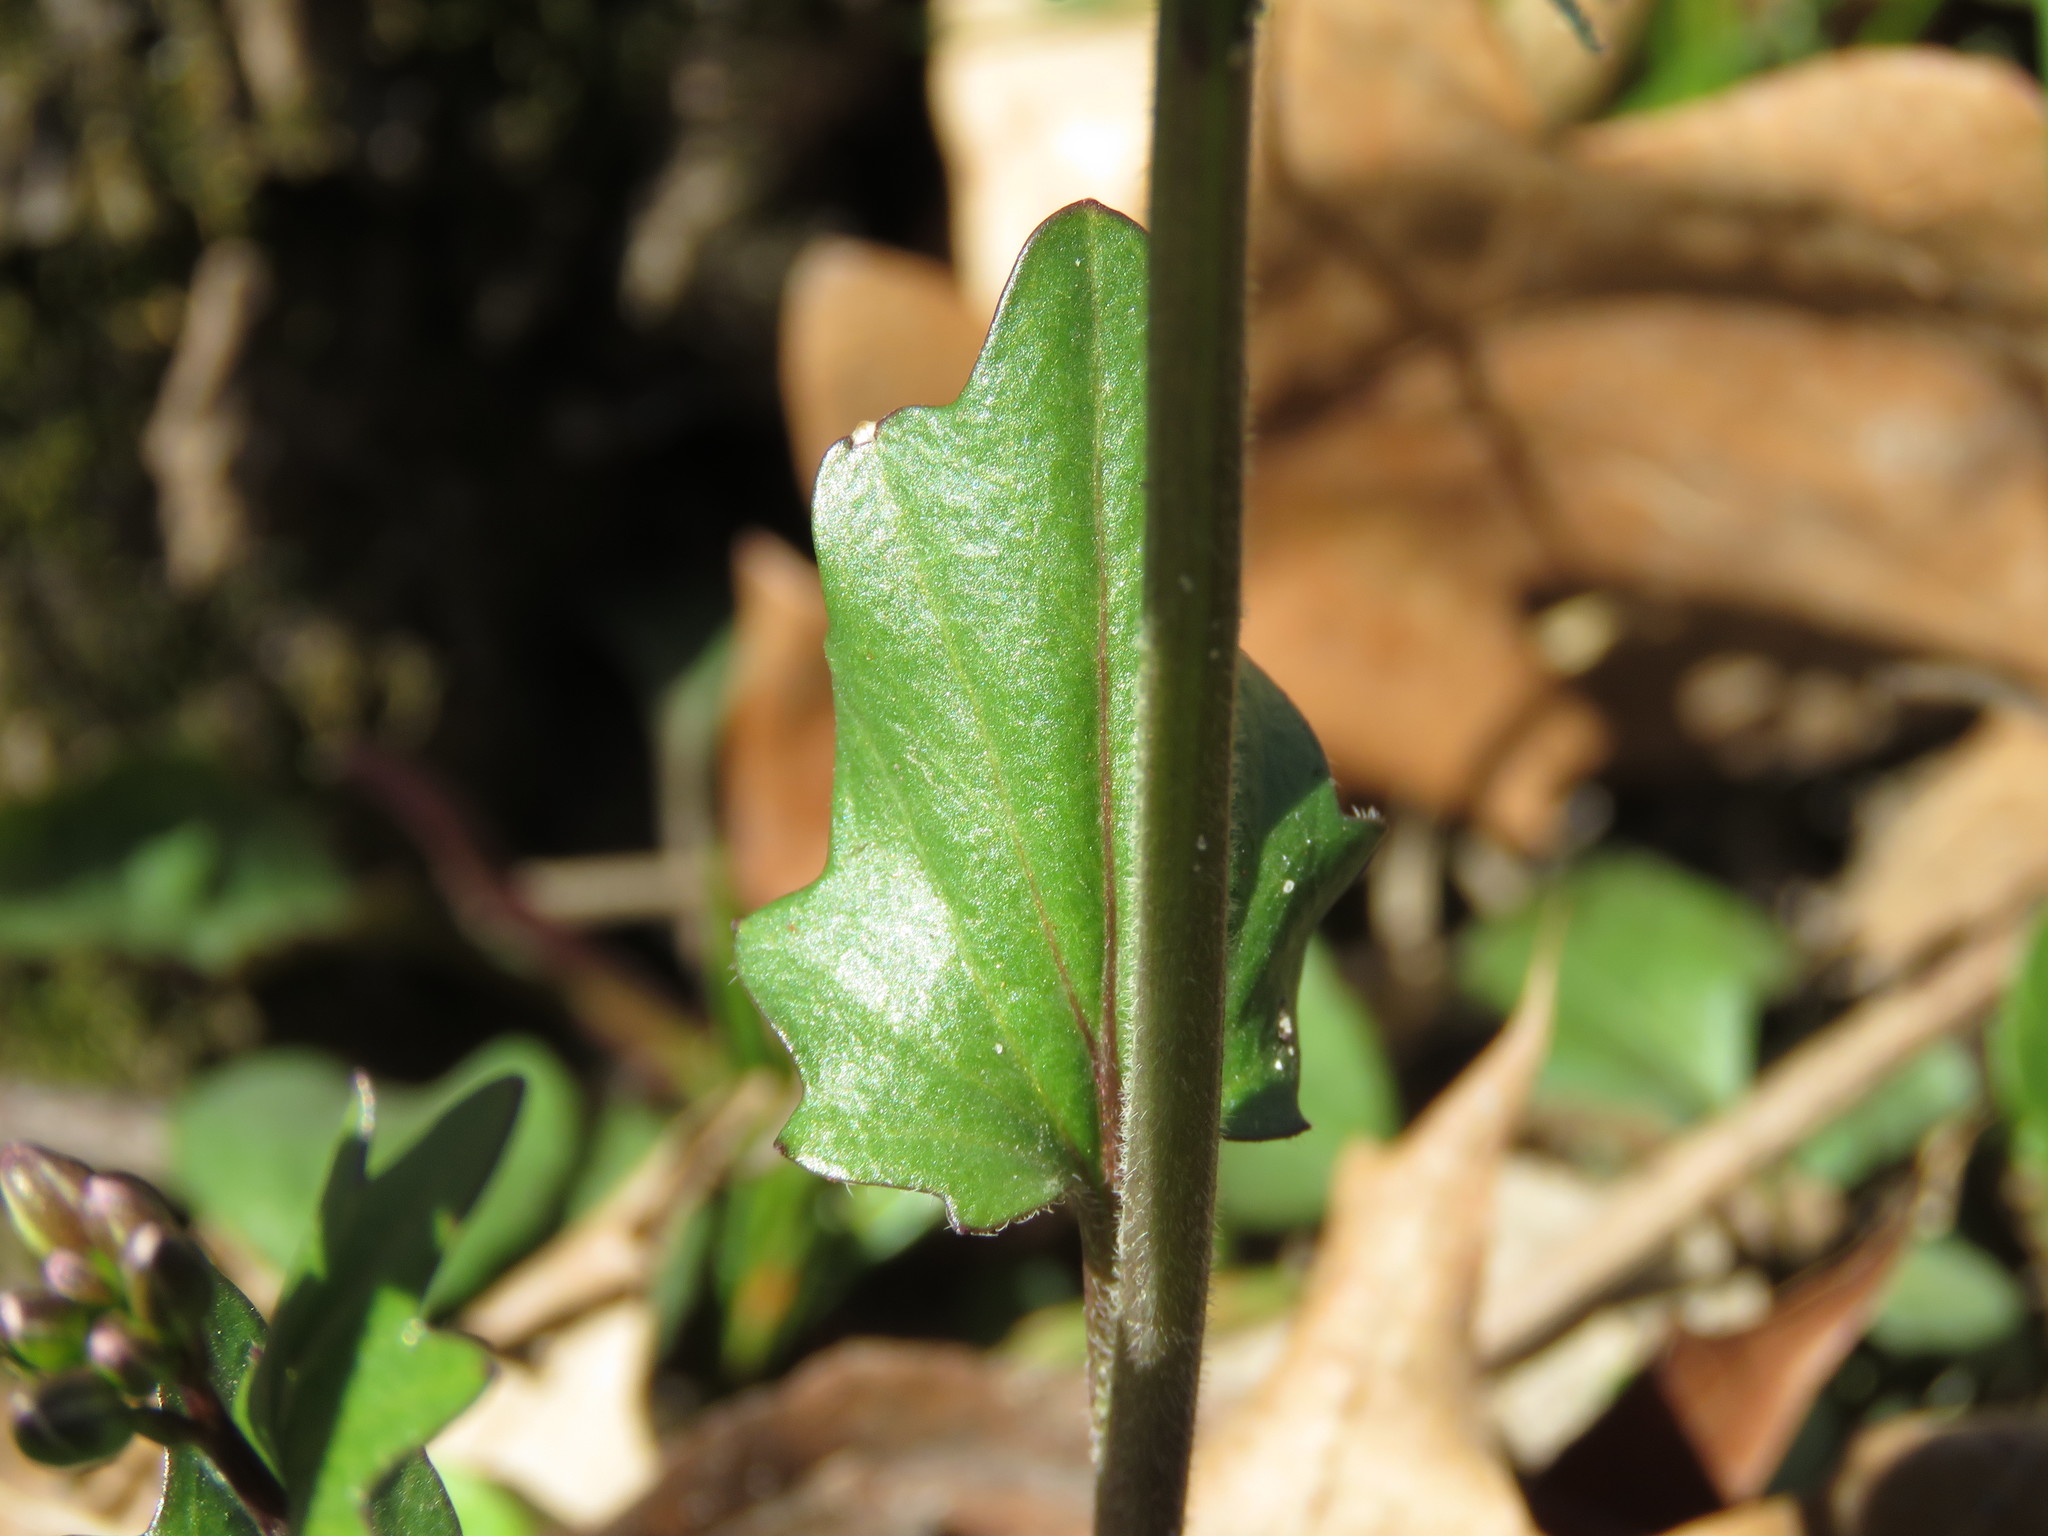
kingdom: Plantae
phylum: Tracheophyta
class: Magnoliopsida
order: Brassicales
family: Brassicaceae
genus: Cardamine
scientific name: Cardamine douglassii
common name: Purple cress
